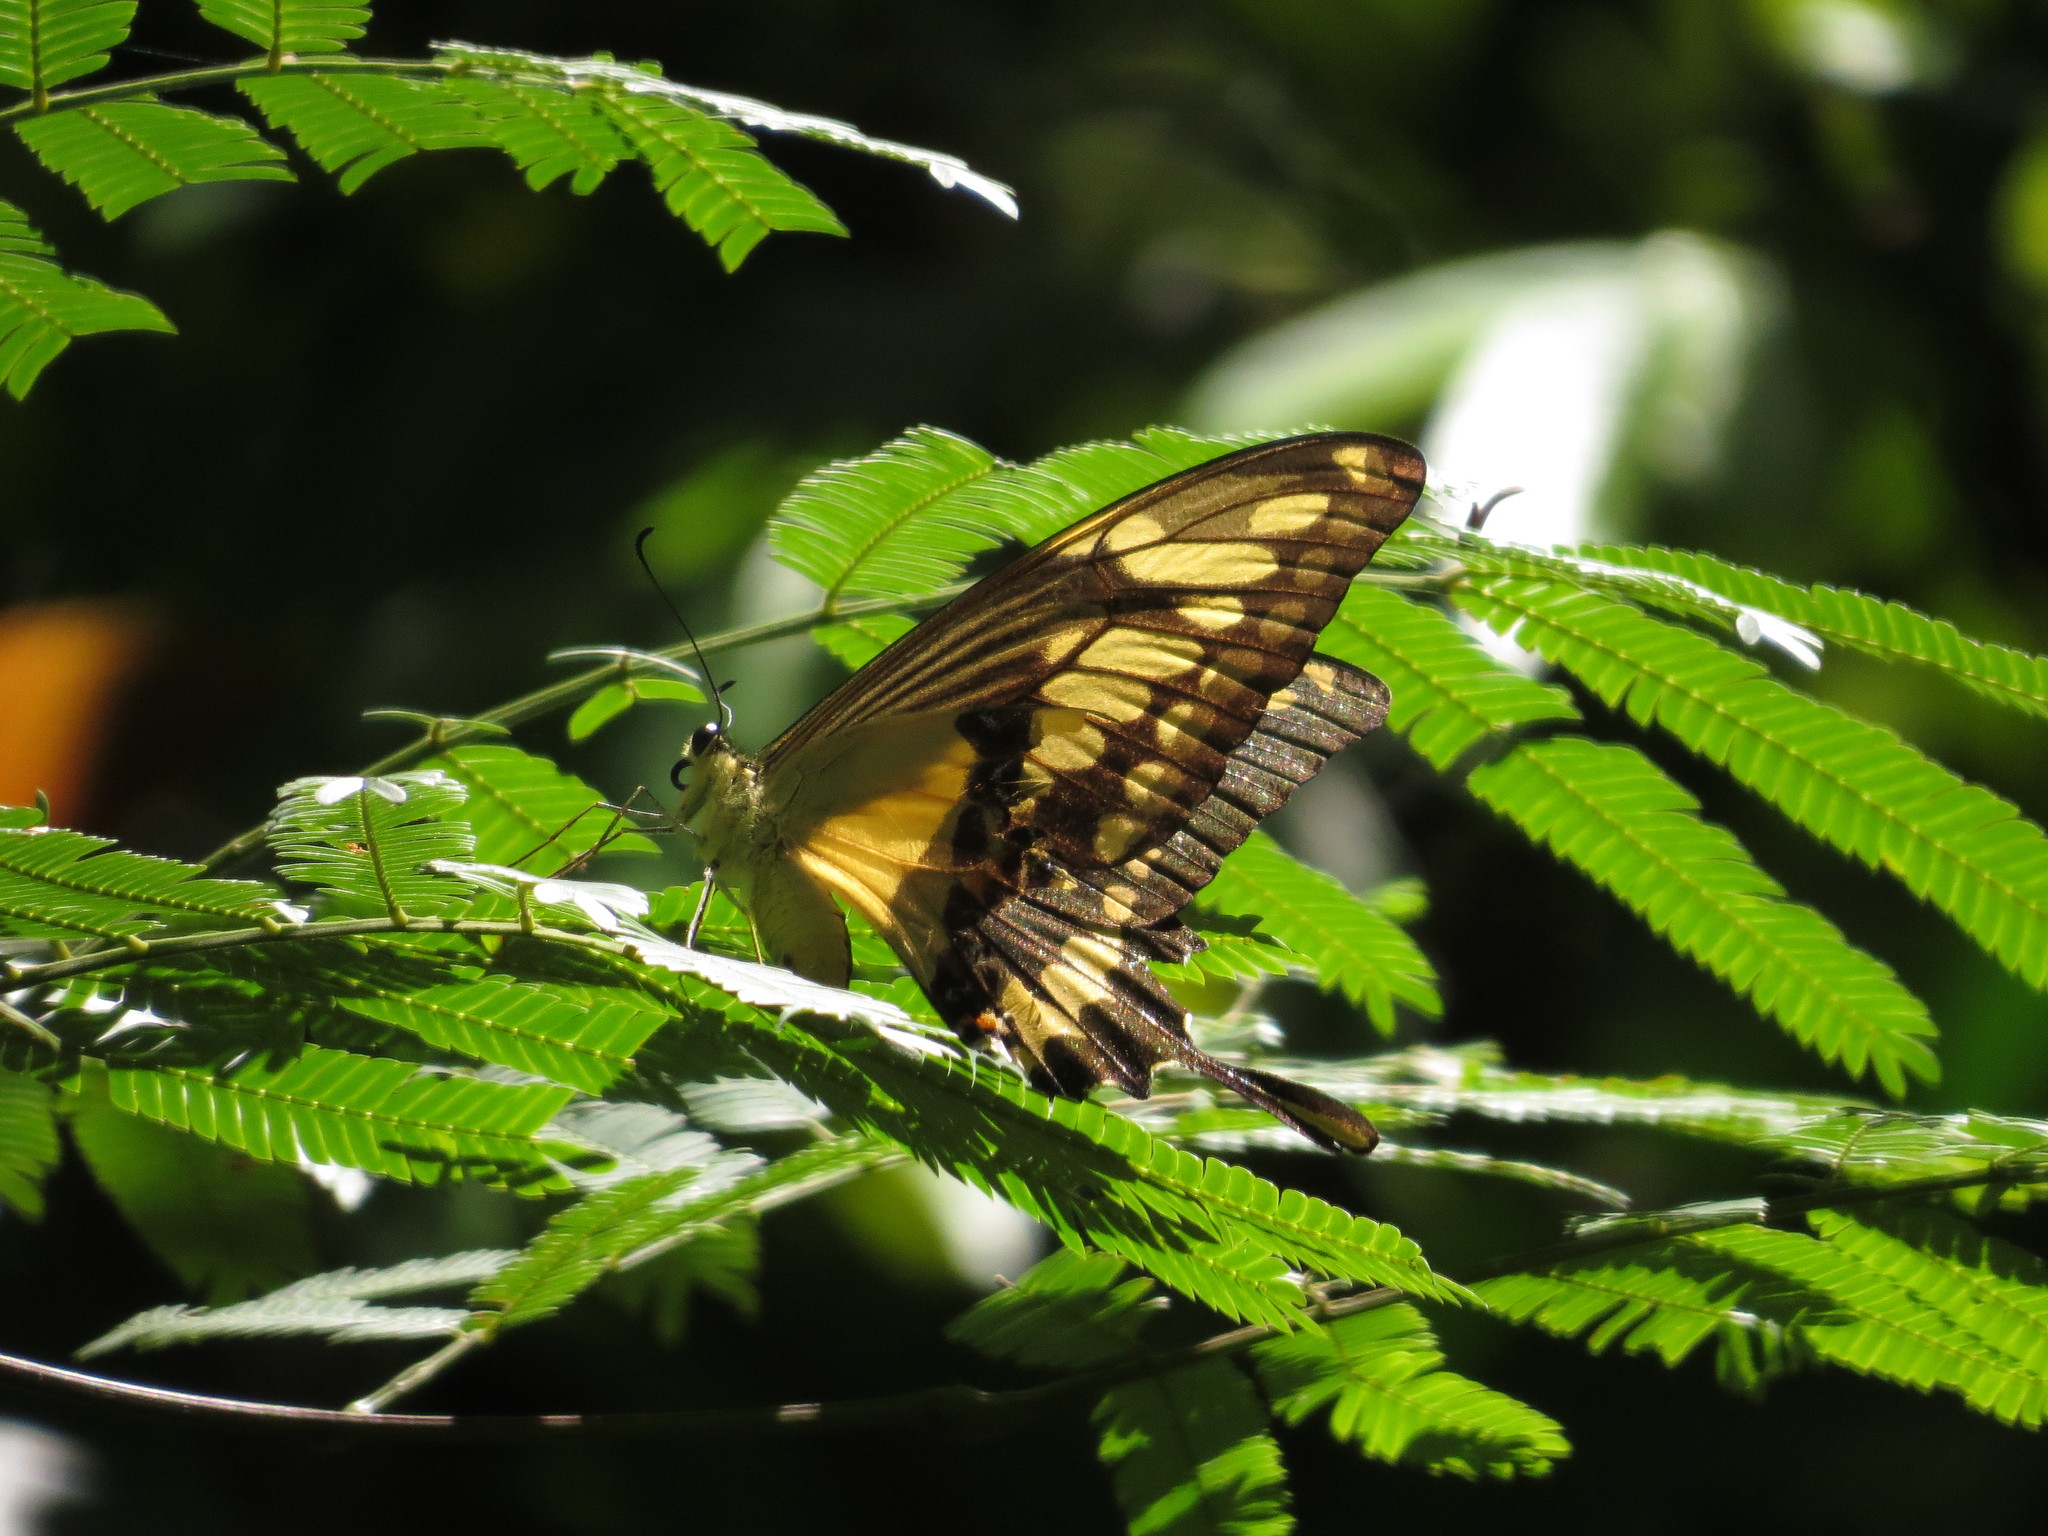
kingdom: Animalia
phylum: Arthropoda
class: Insecta
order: Lepidoptera
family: Papilionidae
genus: Papilio
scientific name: Papilio thoas
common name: King swallowtail
